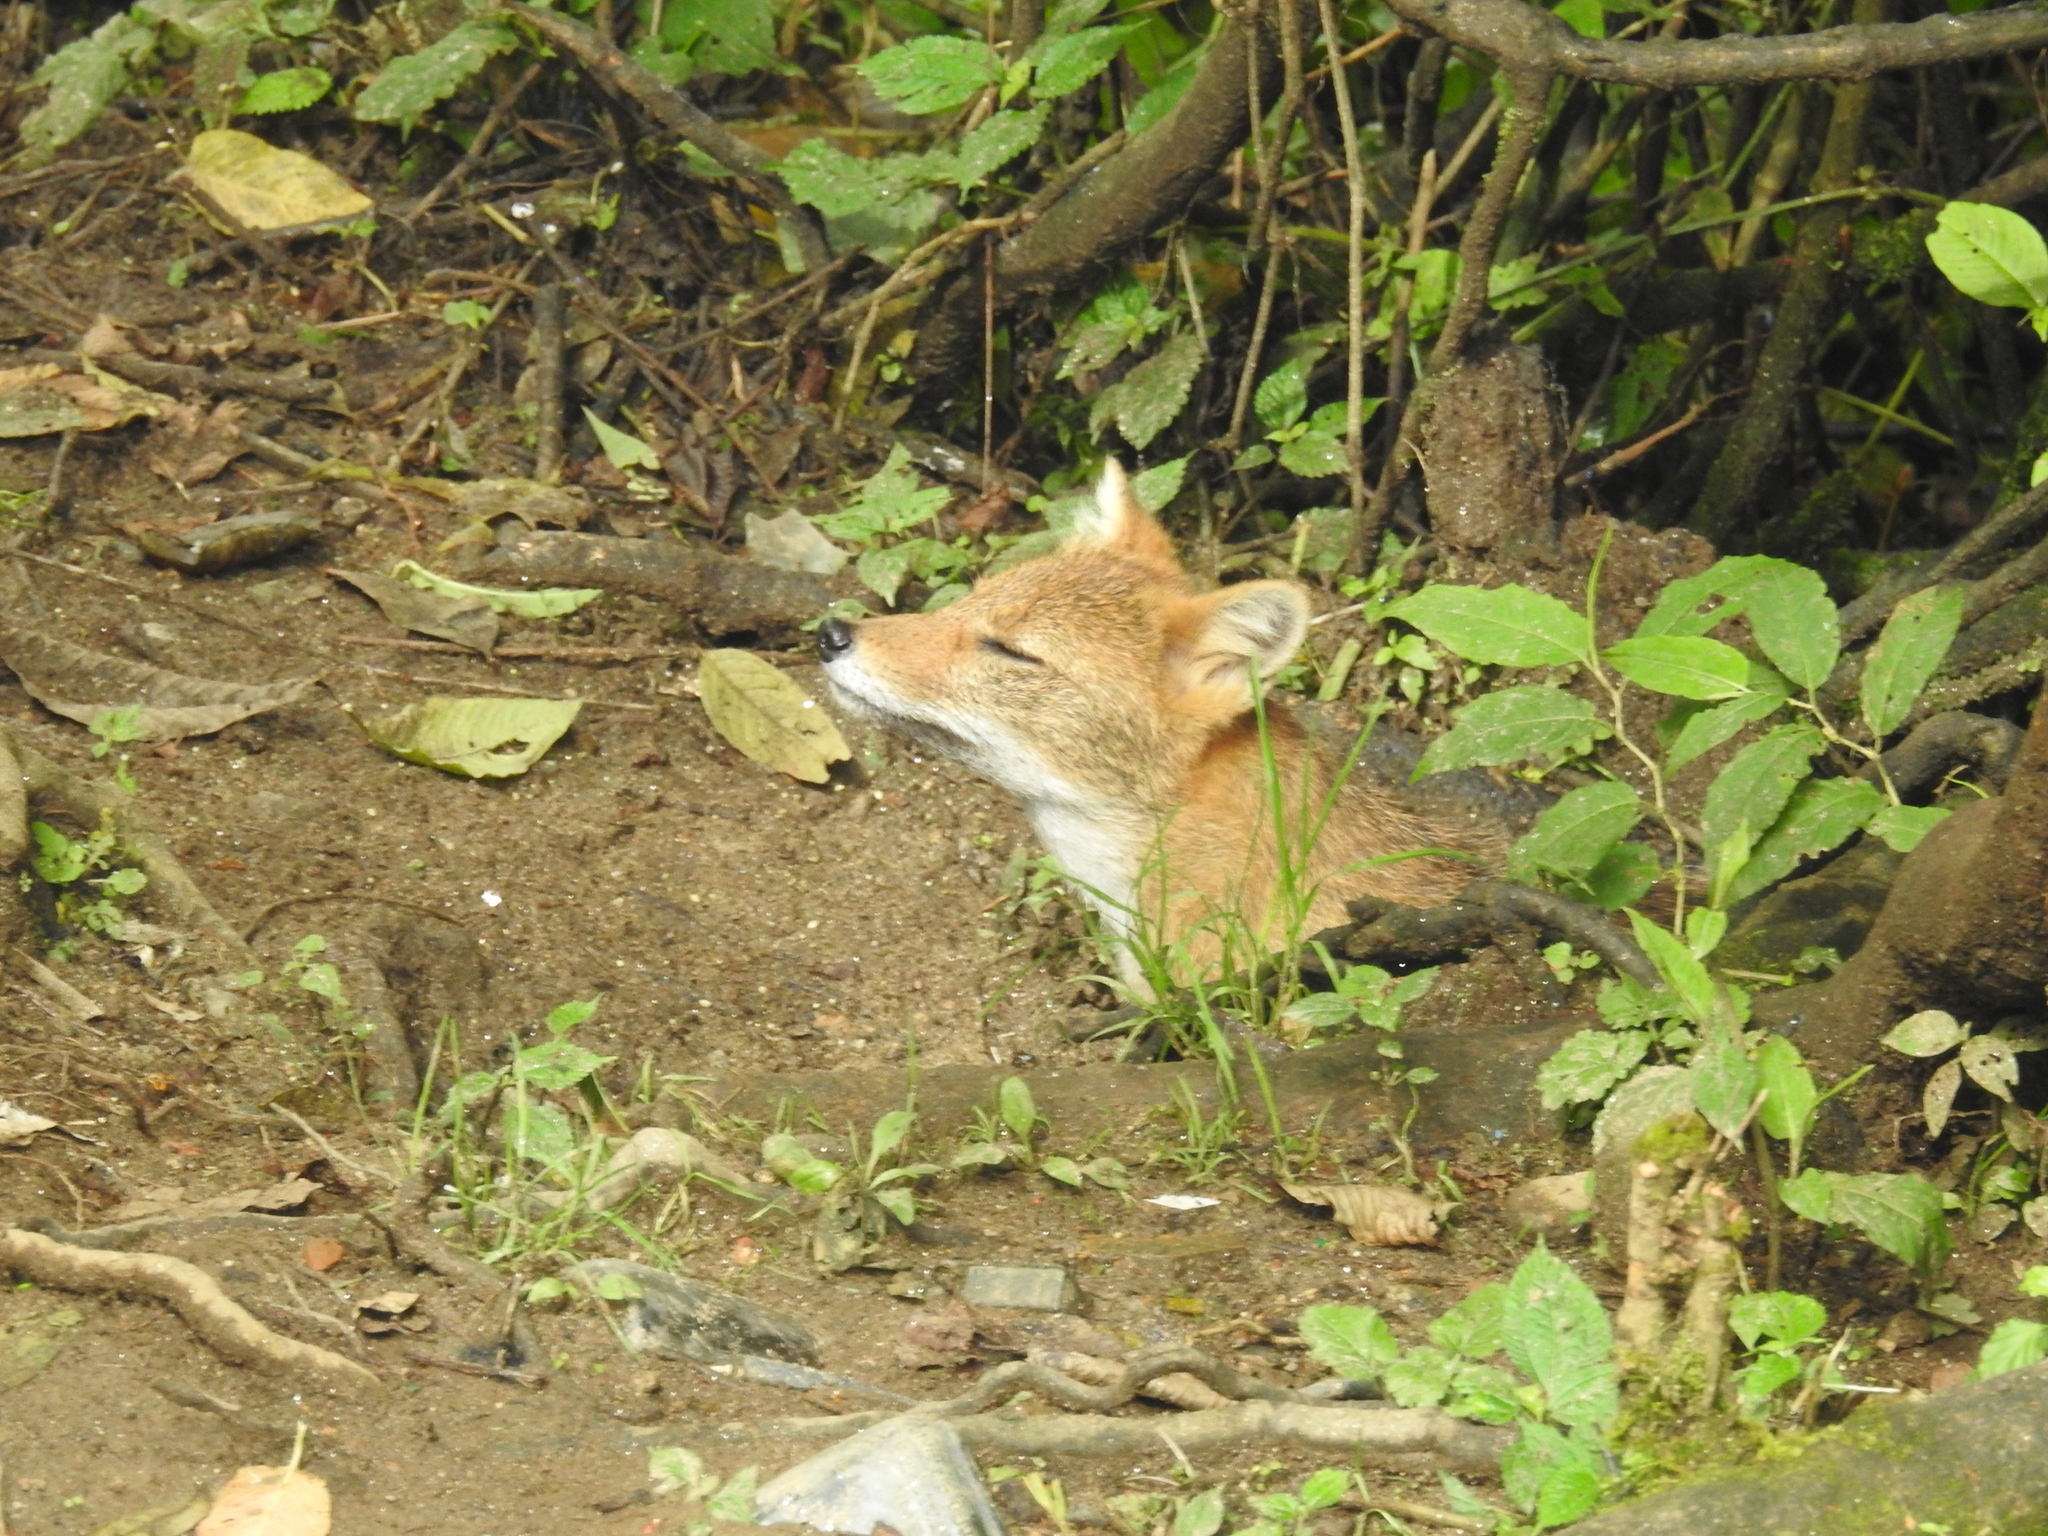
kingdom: Animalia
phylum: Chordata
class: Mammalia
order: Carnivora
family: Canidae
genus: Canis
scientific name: Canis aureus
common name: Golden jackal
